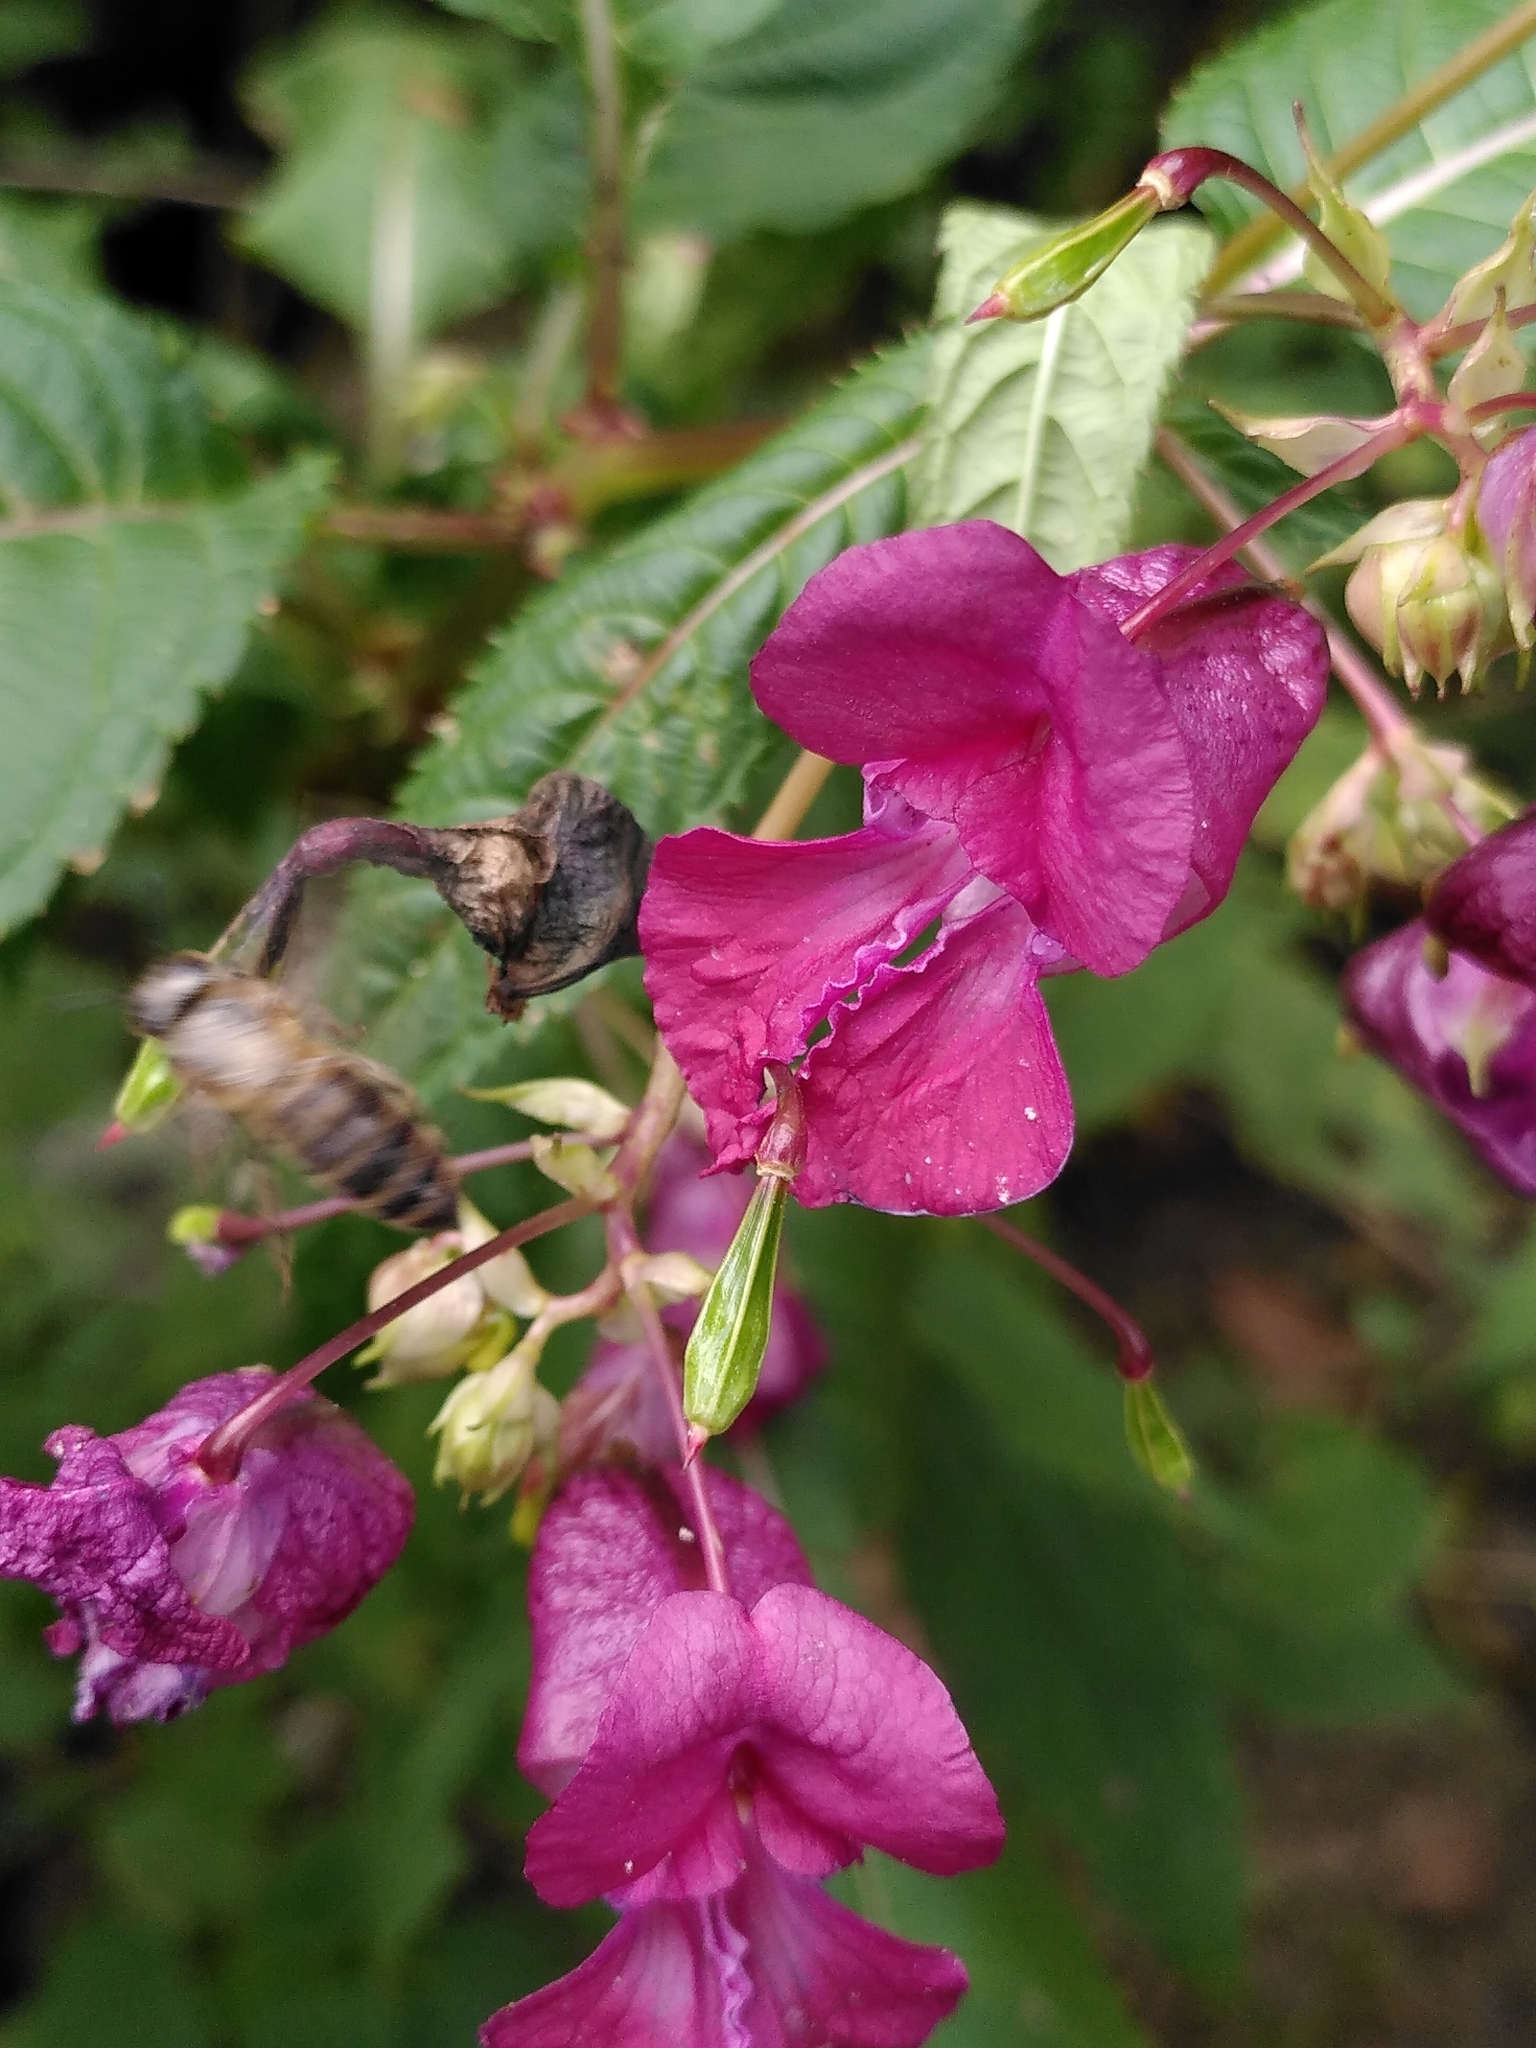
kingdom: Plantae
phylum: Tracheophyta
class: Magnoliopsida
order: Ericales
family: Balsaminaceae
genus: Impatiens
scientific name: Impatiens glandulifera
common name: Himalayan balsam
